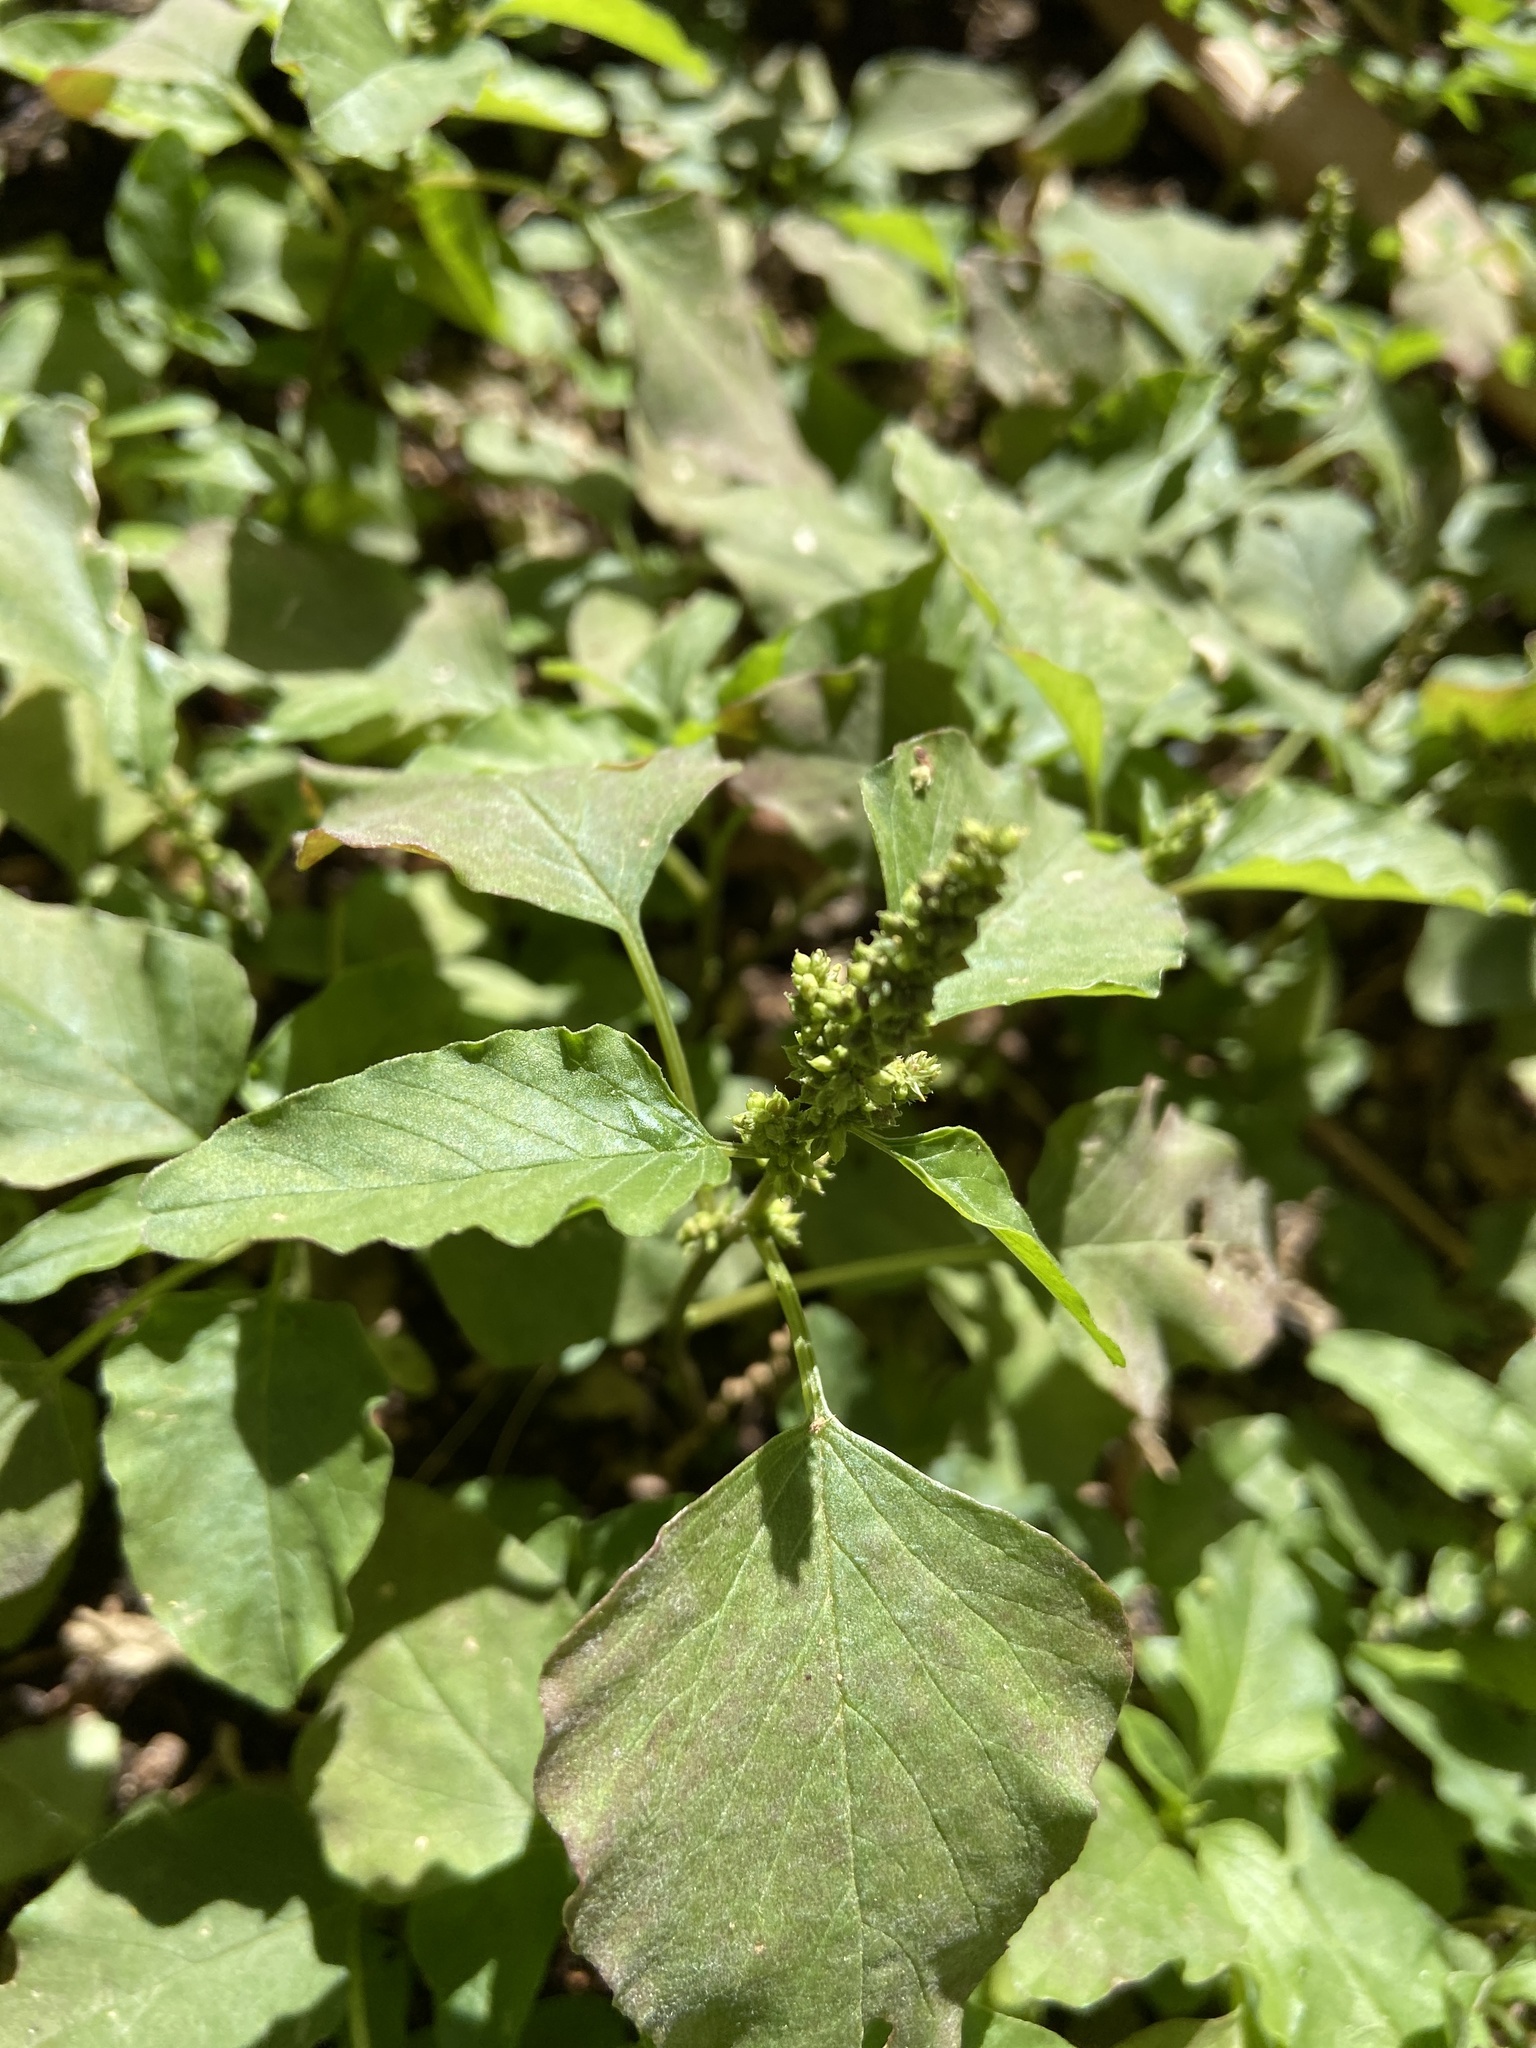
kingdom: Plantae
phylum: Tracheophyta
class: Magnoliopsida
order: Caryophyllales
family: Amaranthaceae
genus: Amaranthus
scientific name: Amaranthus blitum
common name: Purple amaranth
